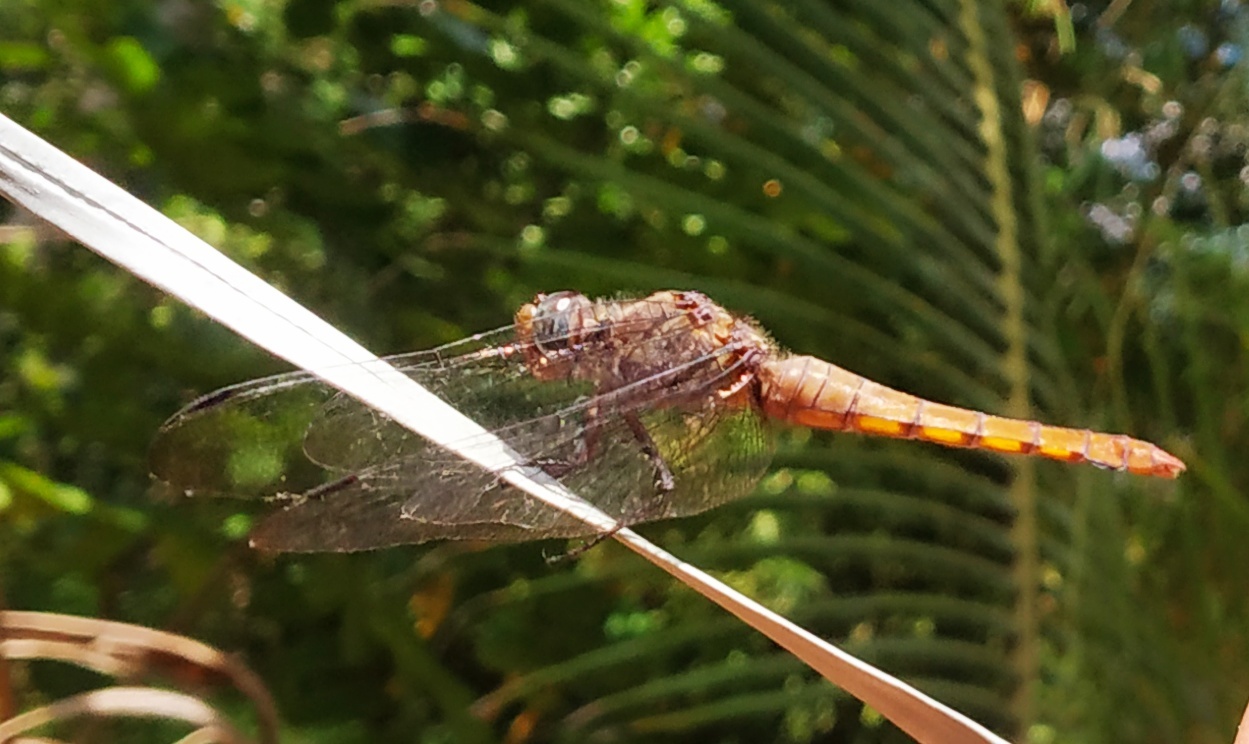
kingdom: Animalia
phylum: Arthropoda
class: Insecta
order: Odonata
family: Libellulidae
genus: Orthetrum
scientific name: Orthetrum pruinosum
